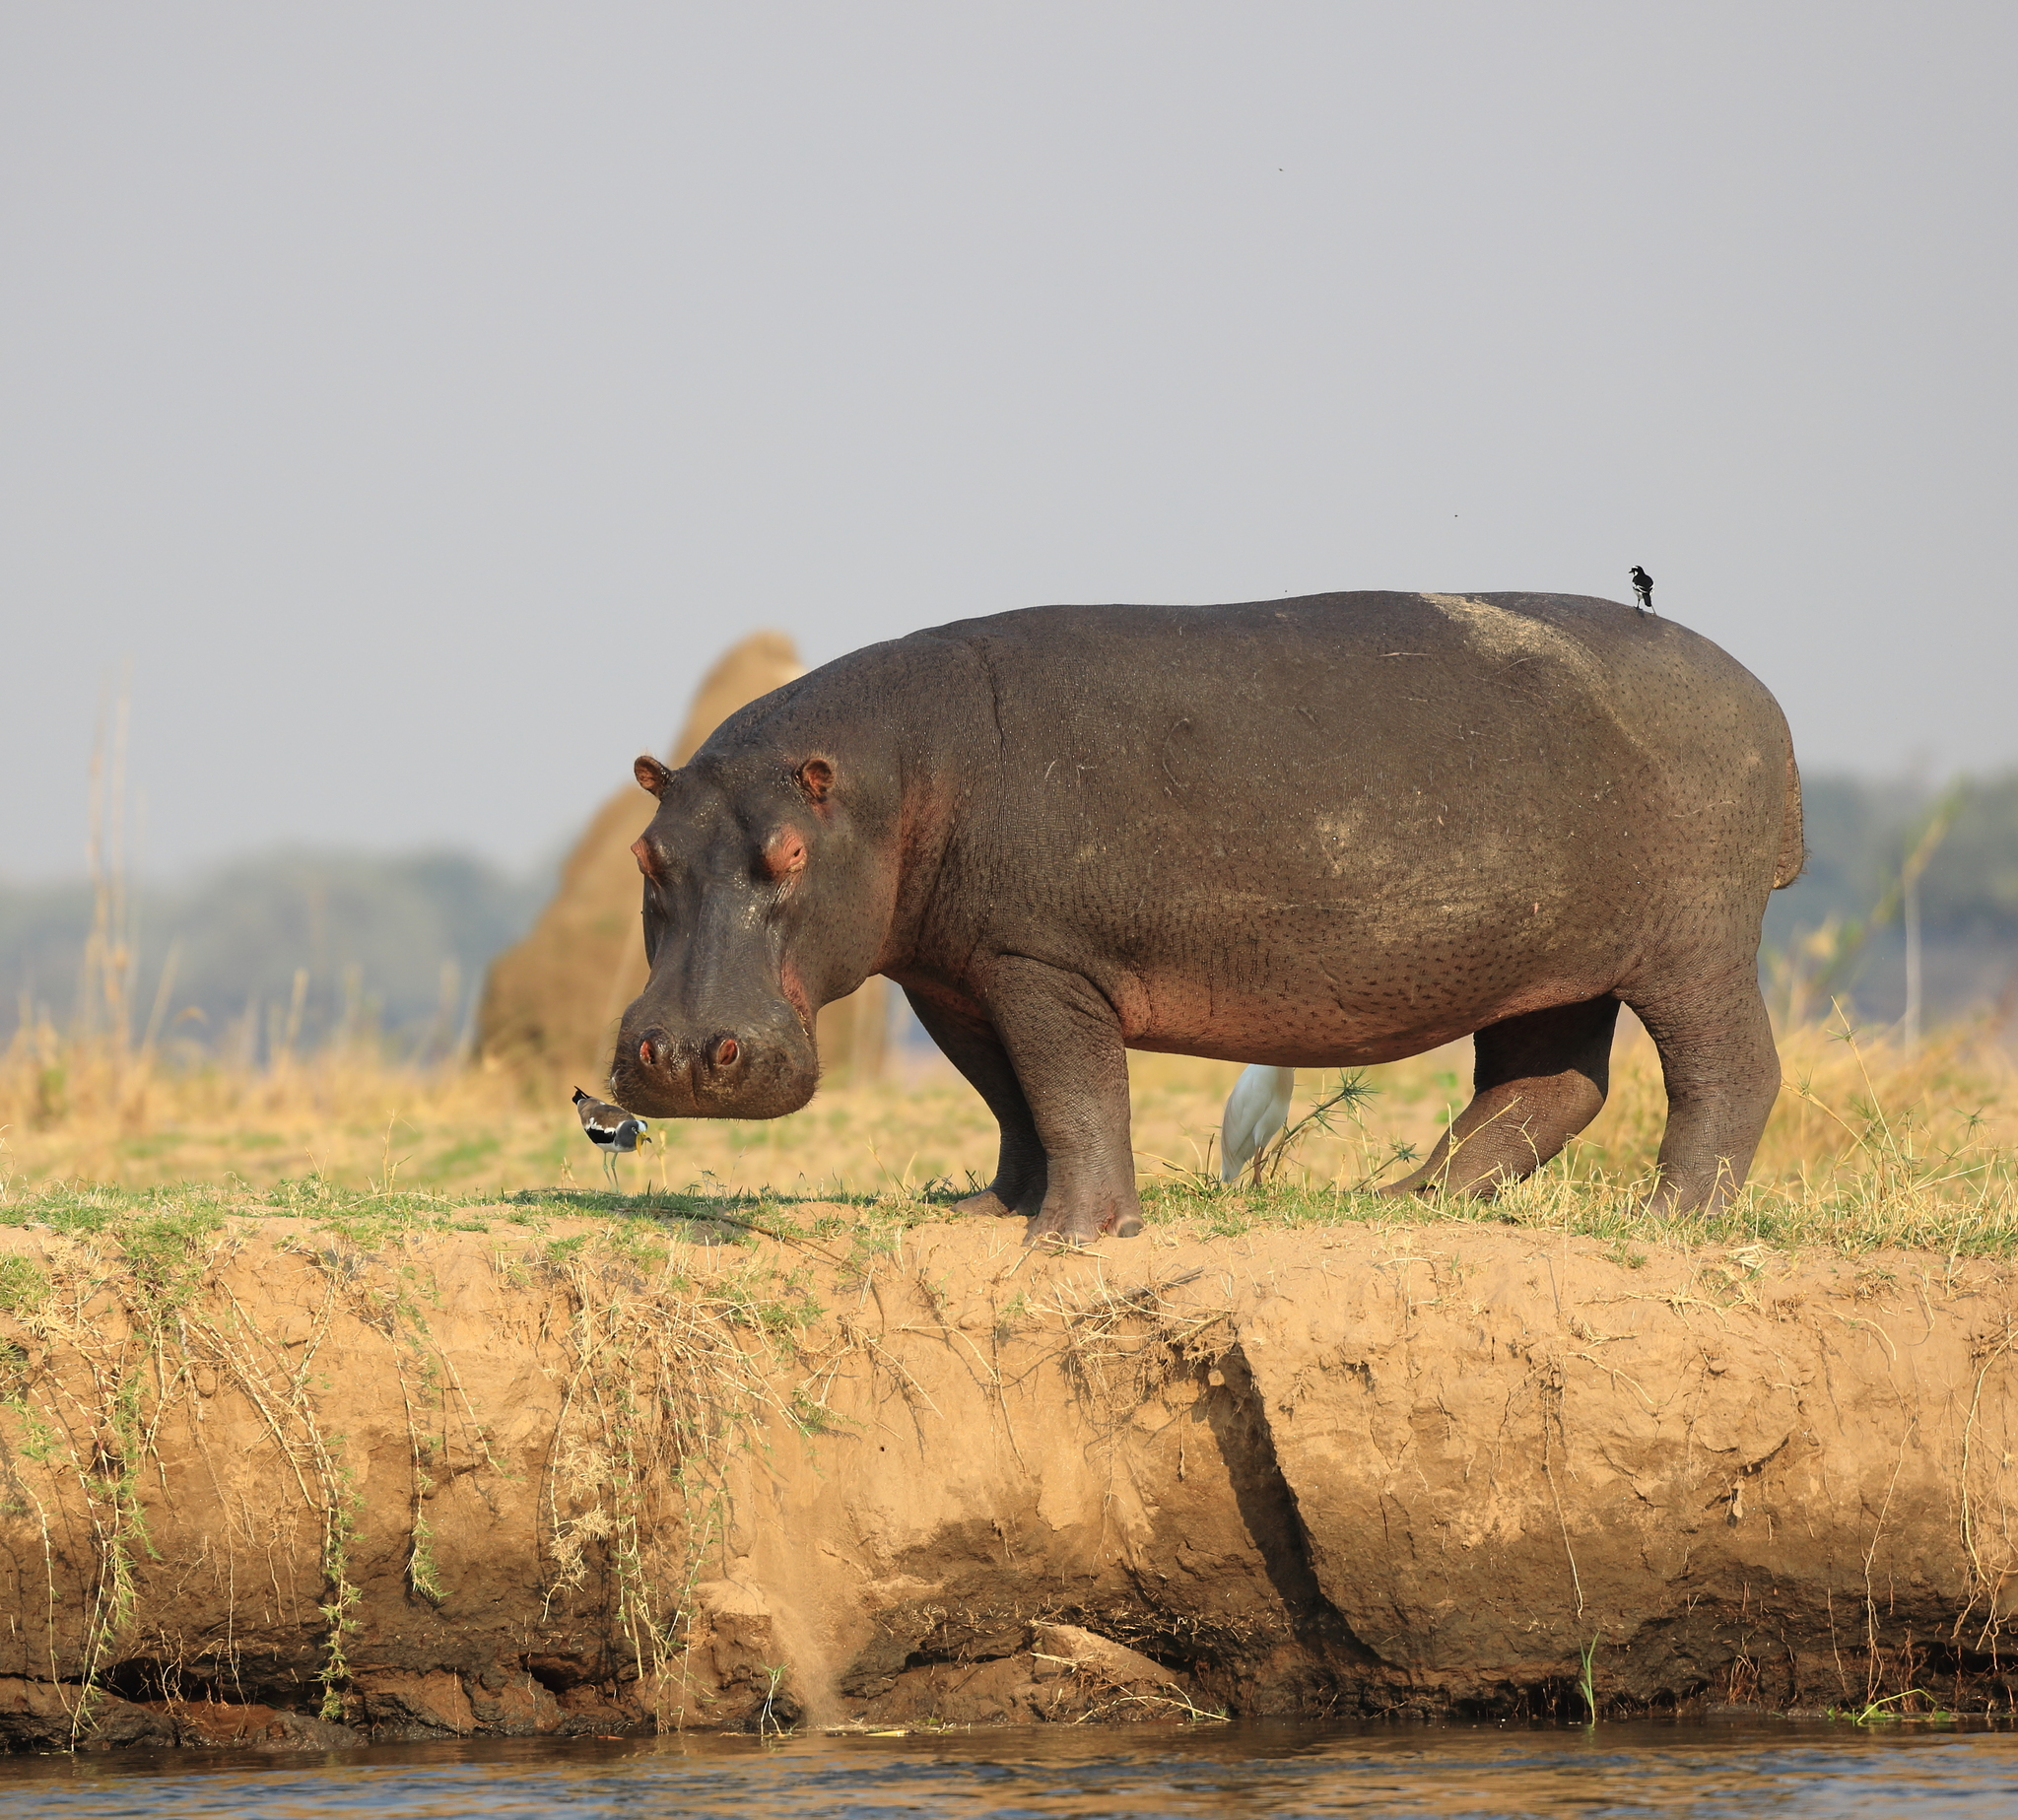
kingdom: Animalia
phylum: Chordata
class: Mammalia
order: Artiodactyla
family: Hippopotamidae
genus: Hippopotamus
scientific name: Hippopotamus amphibius
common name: Common hippopotamus
